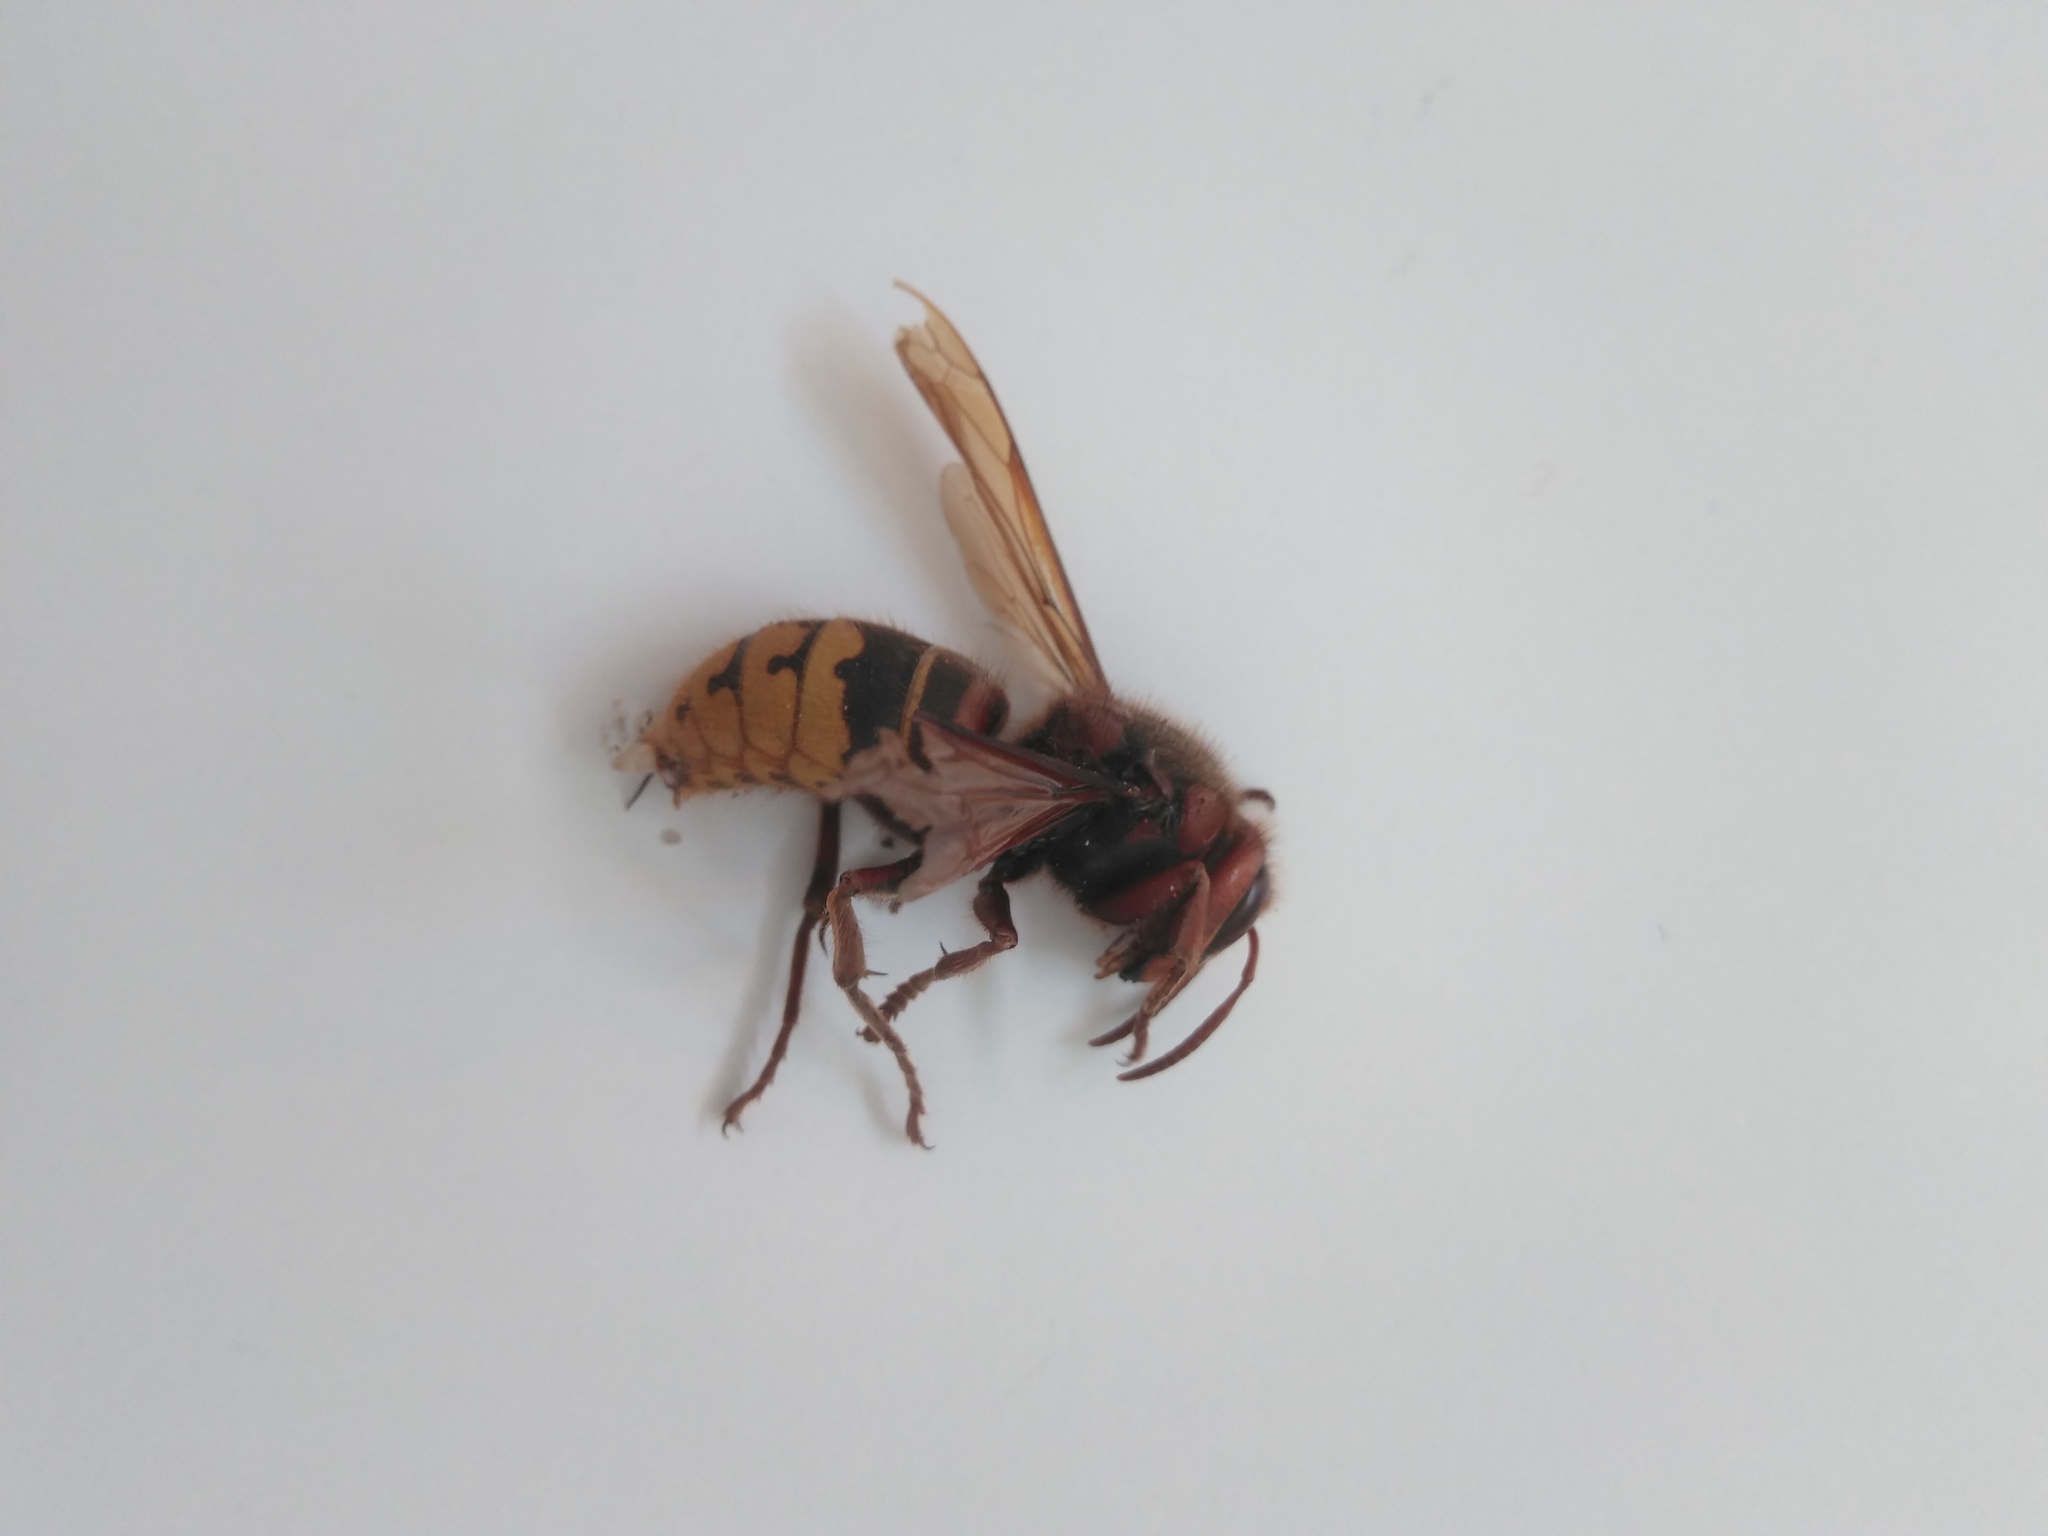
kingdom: Animalia
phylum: Arthropoda
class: Insecta
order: Hymenoptera
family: Vespidae
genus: Vespa
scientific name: Vespa crabro
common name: Hornet
